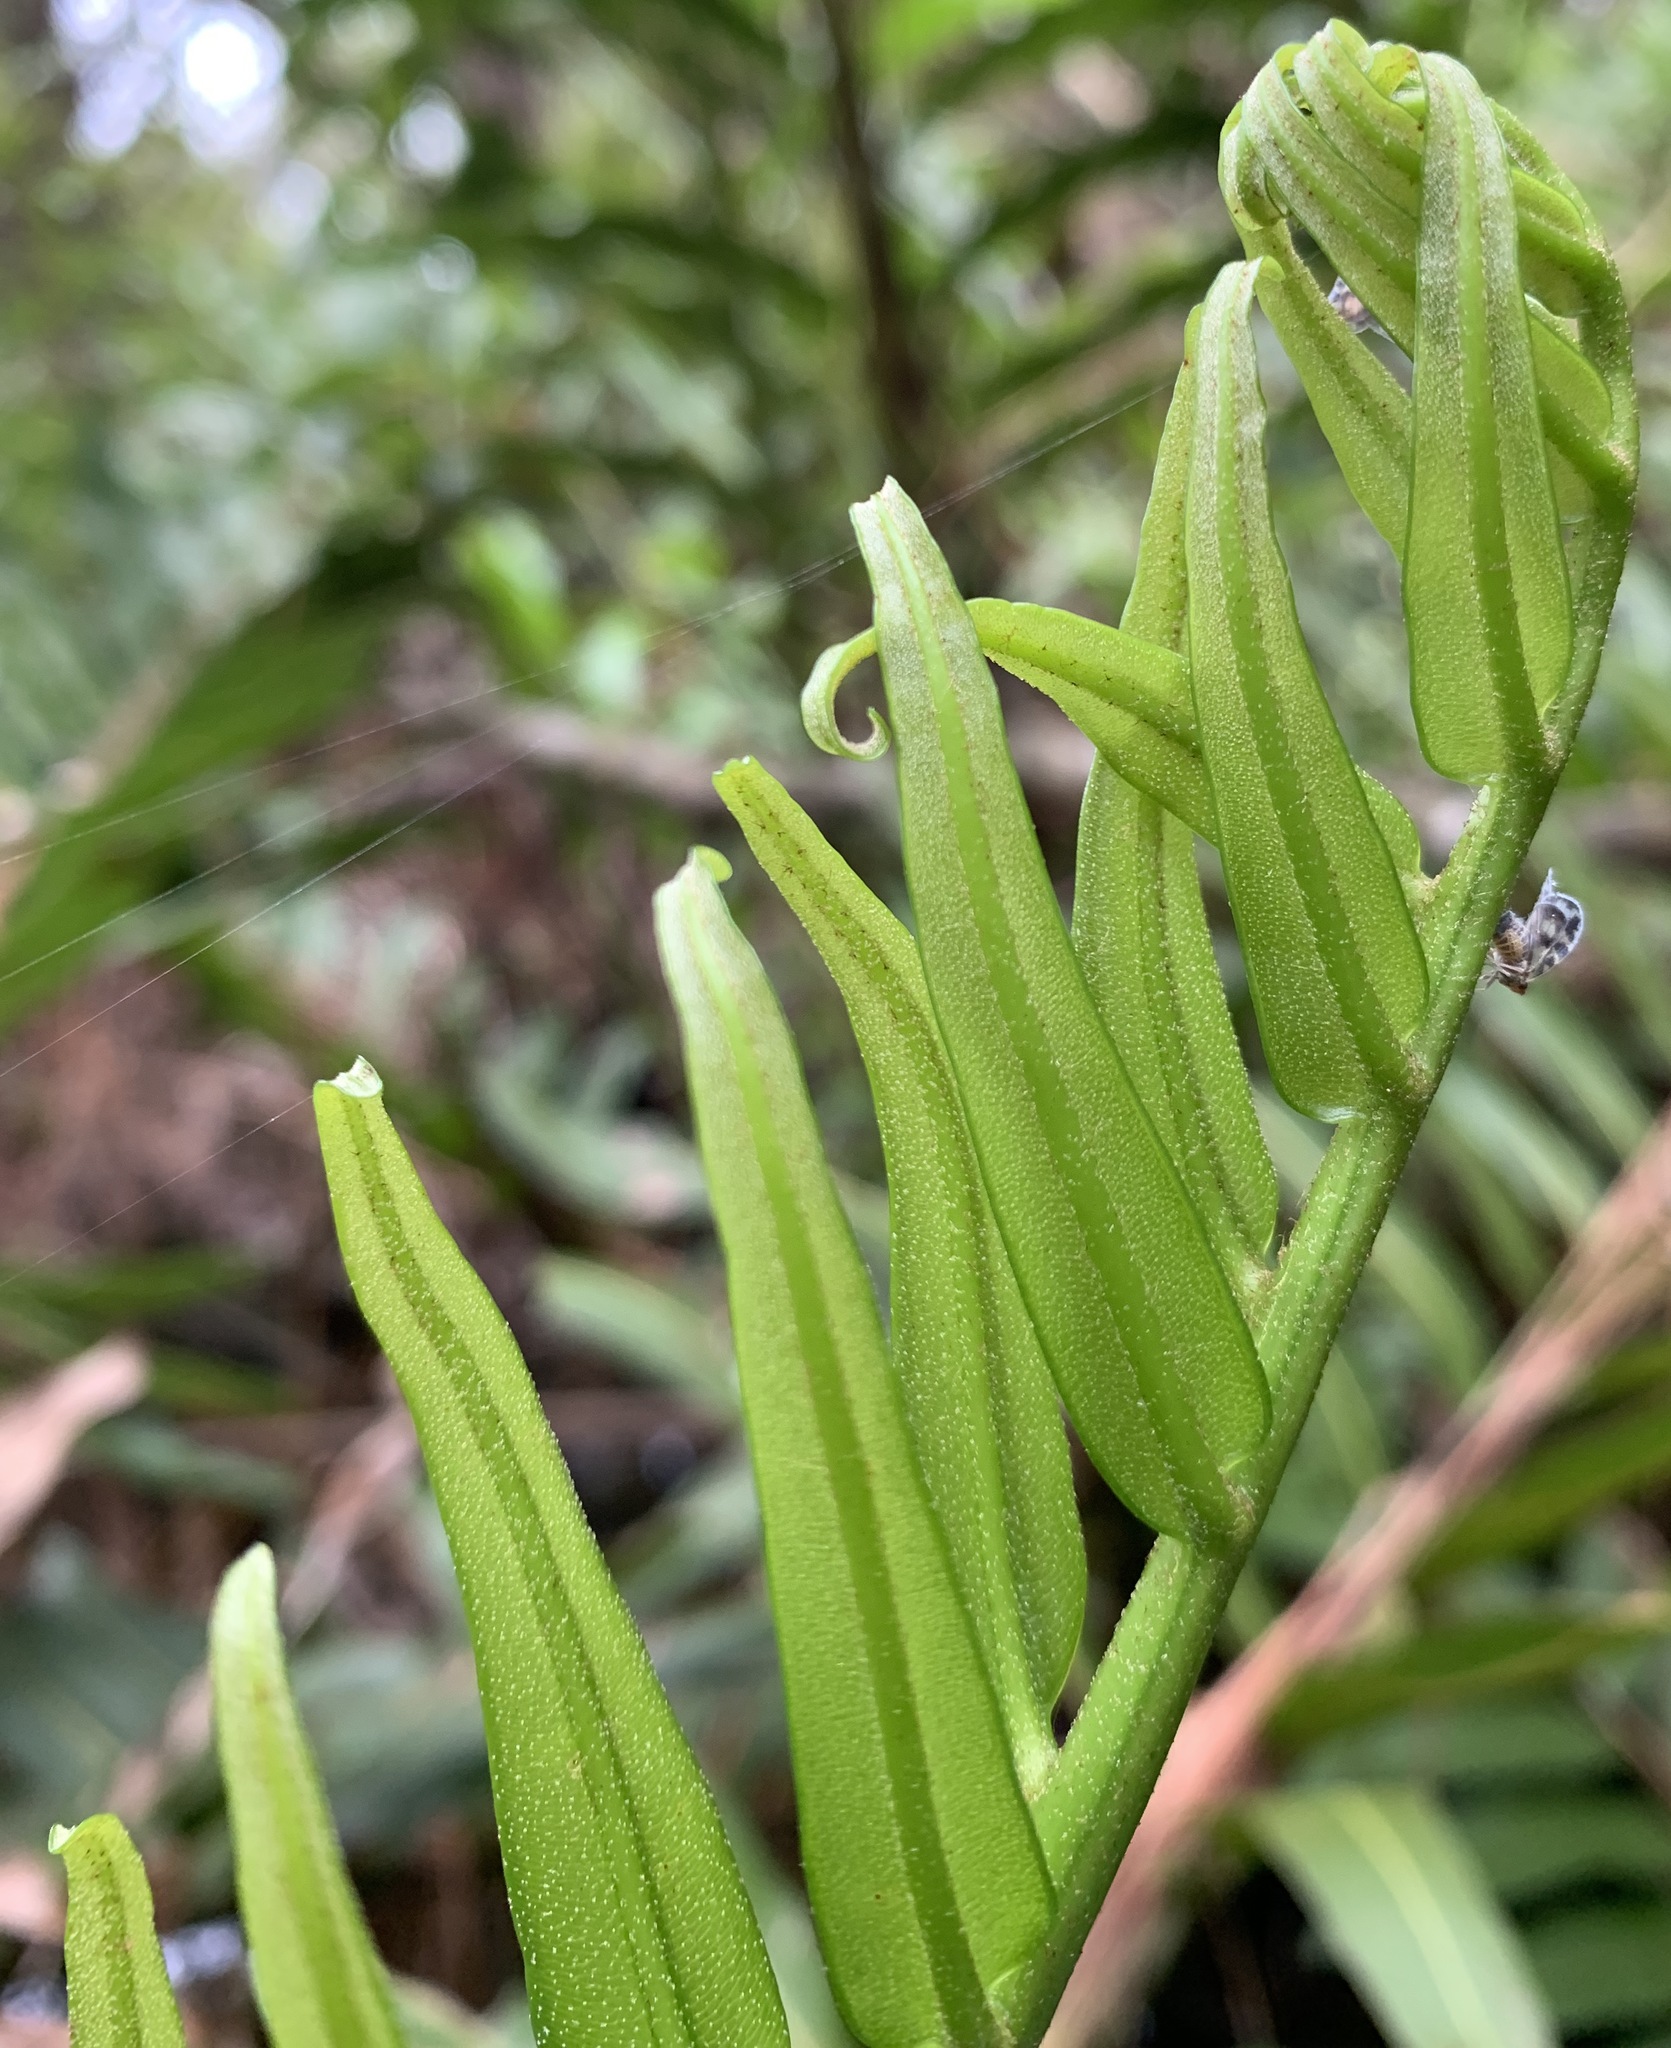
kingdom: Plantae
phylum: Tracheophyta
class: Polypodiopsida
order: Polypodiales
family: Pteridaceae
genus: Acrostichum
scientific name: Acrostichum danaeifolium
